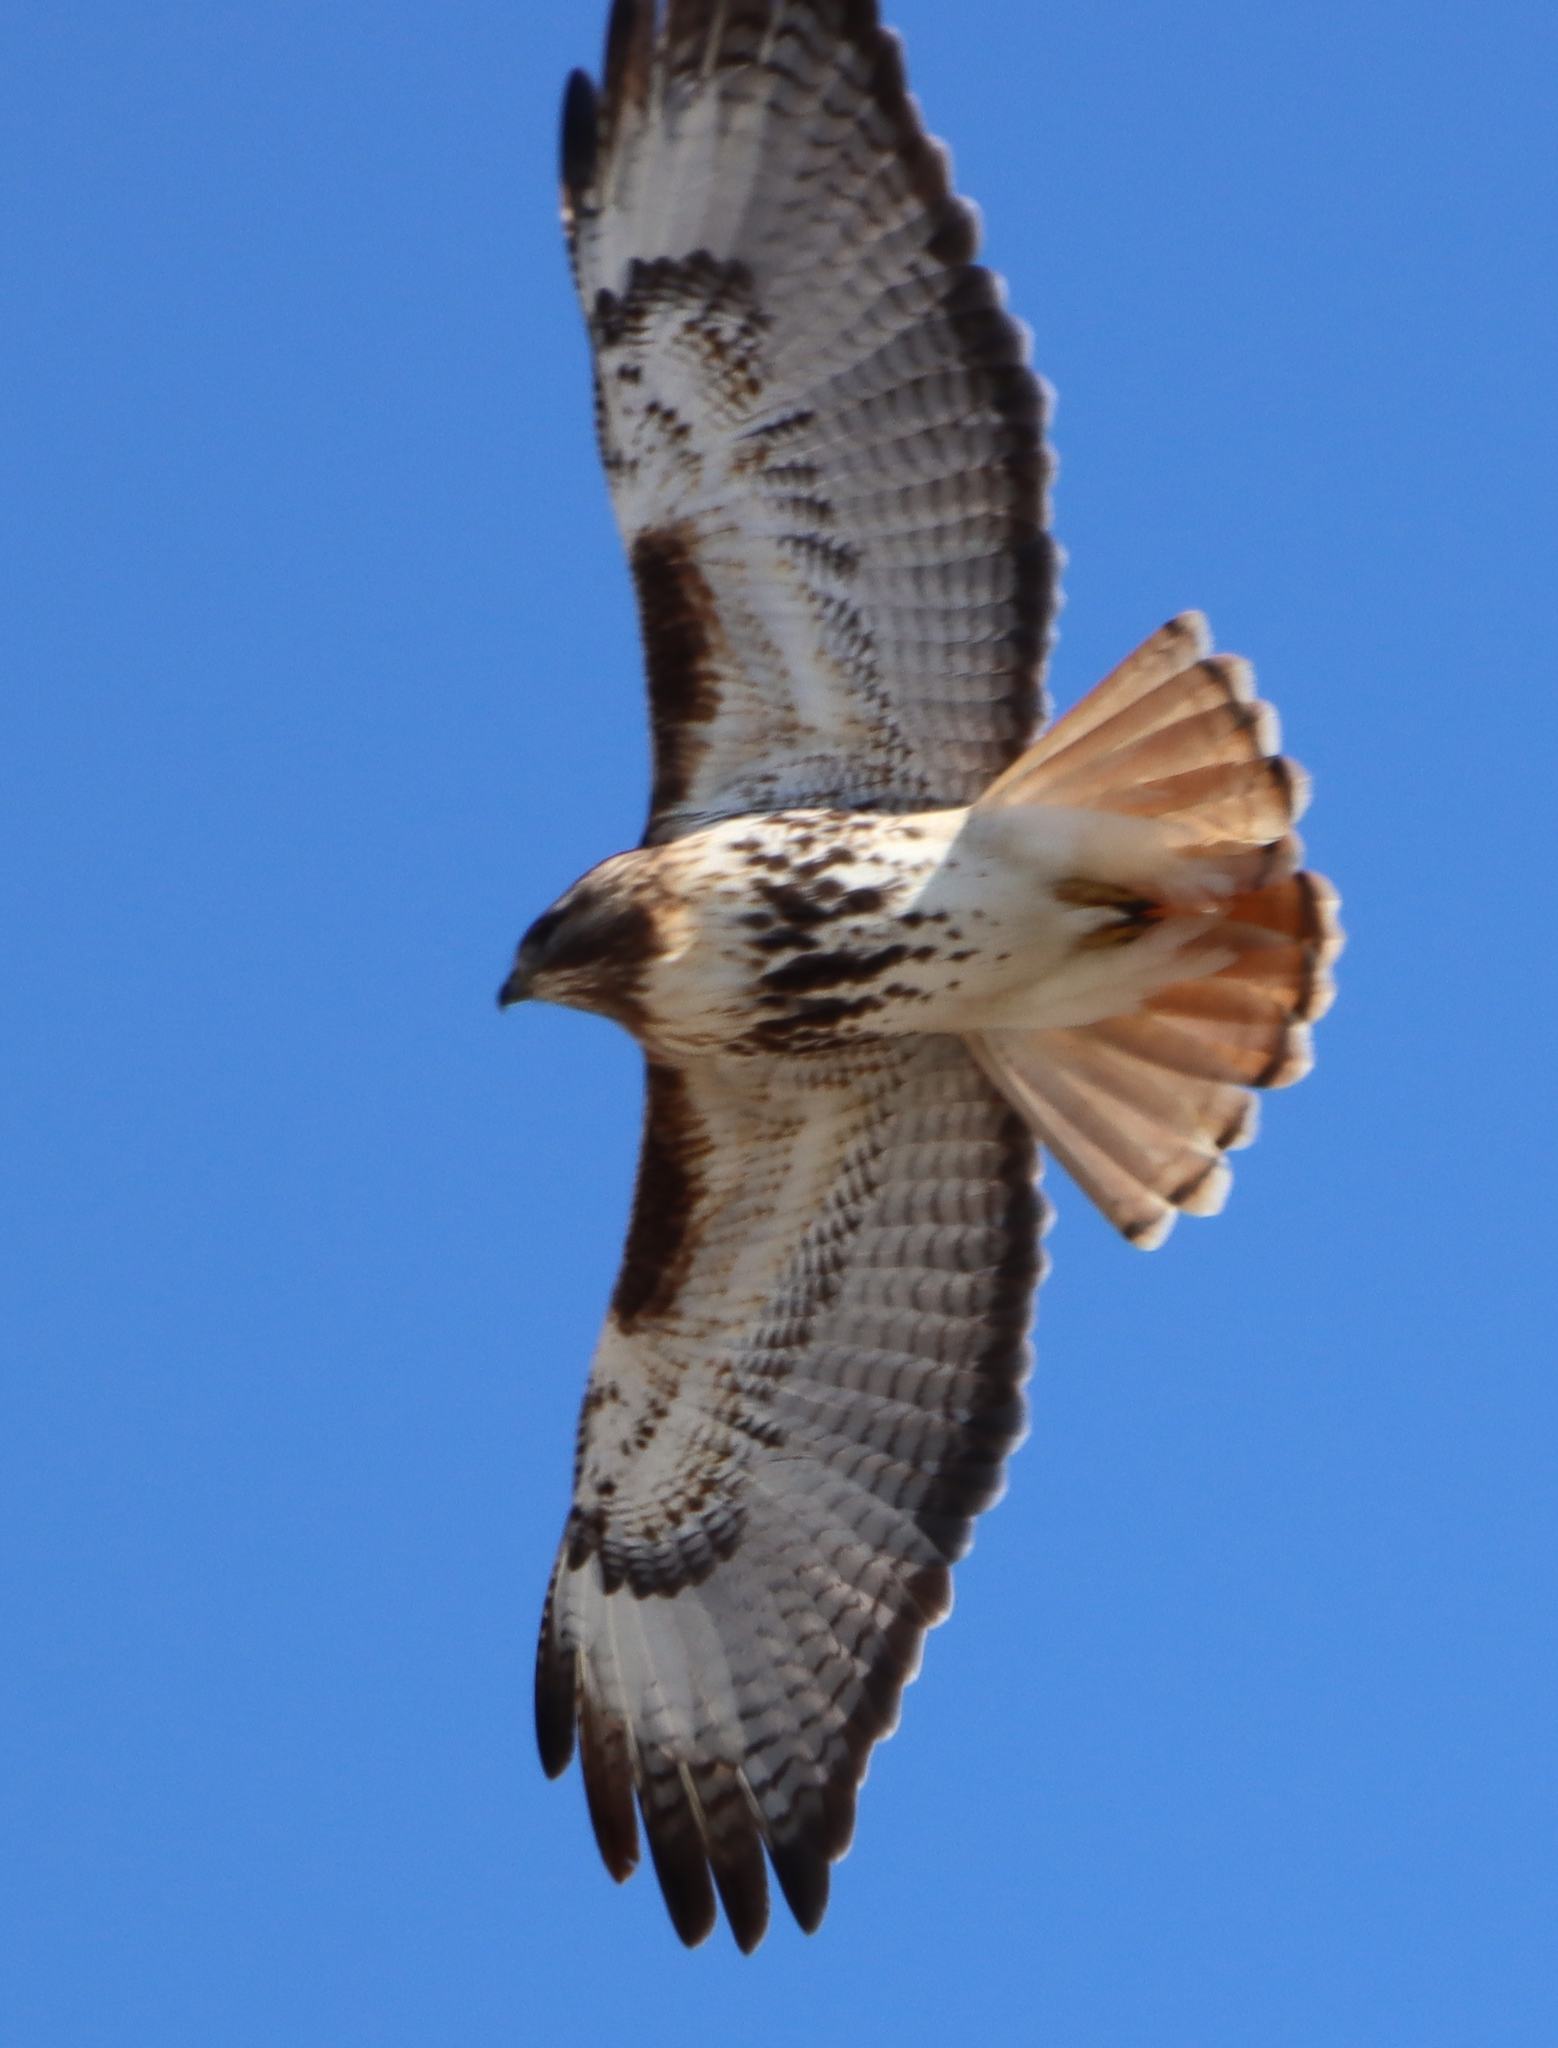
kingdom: Animalia
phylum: Chordata
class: Aves
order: Accipitriformes
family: Accipitridae
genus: Buteo
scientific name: Buteo jamaicensis
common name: Red-tailed hawk
